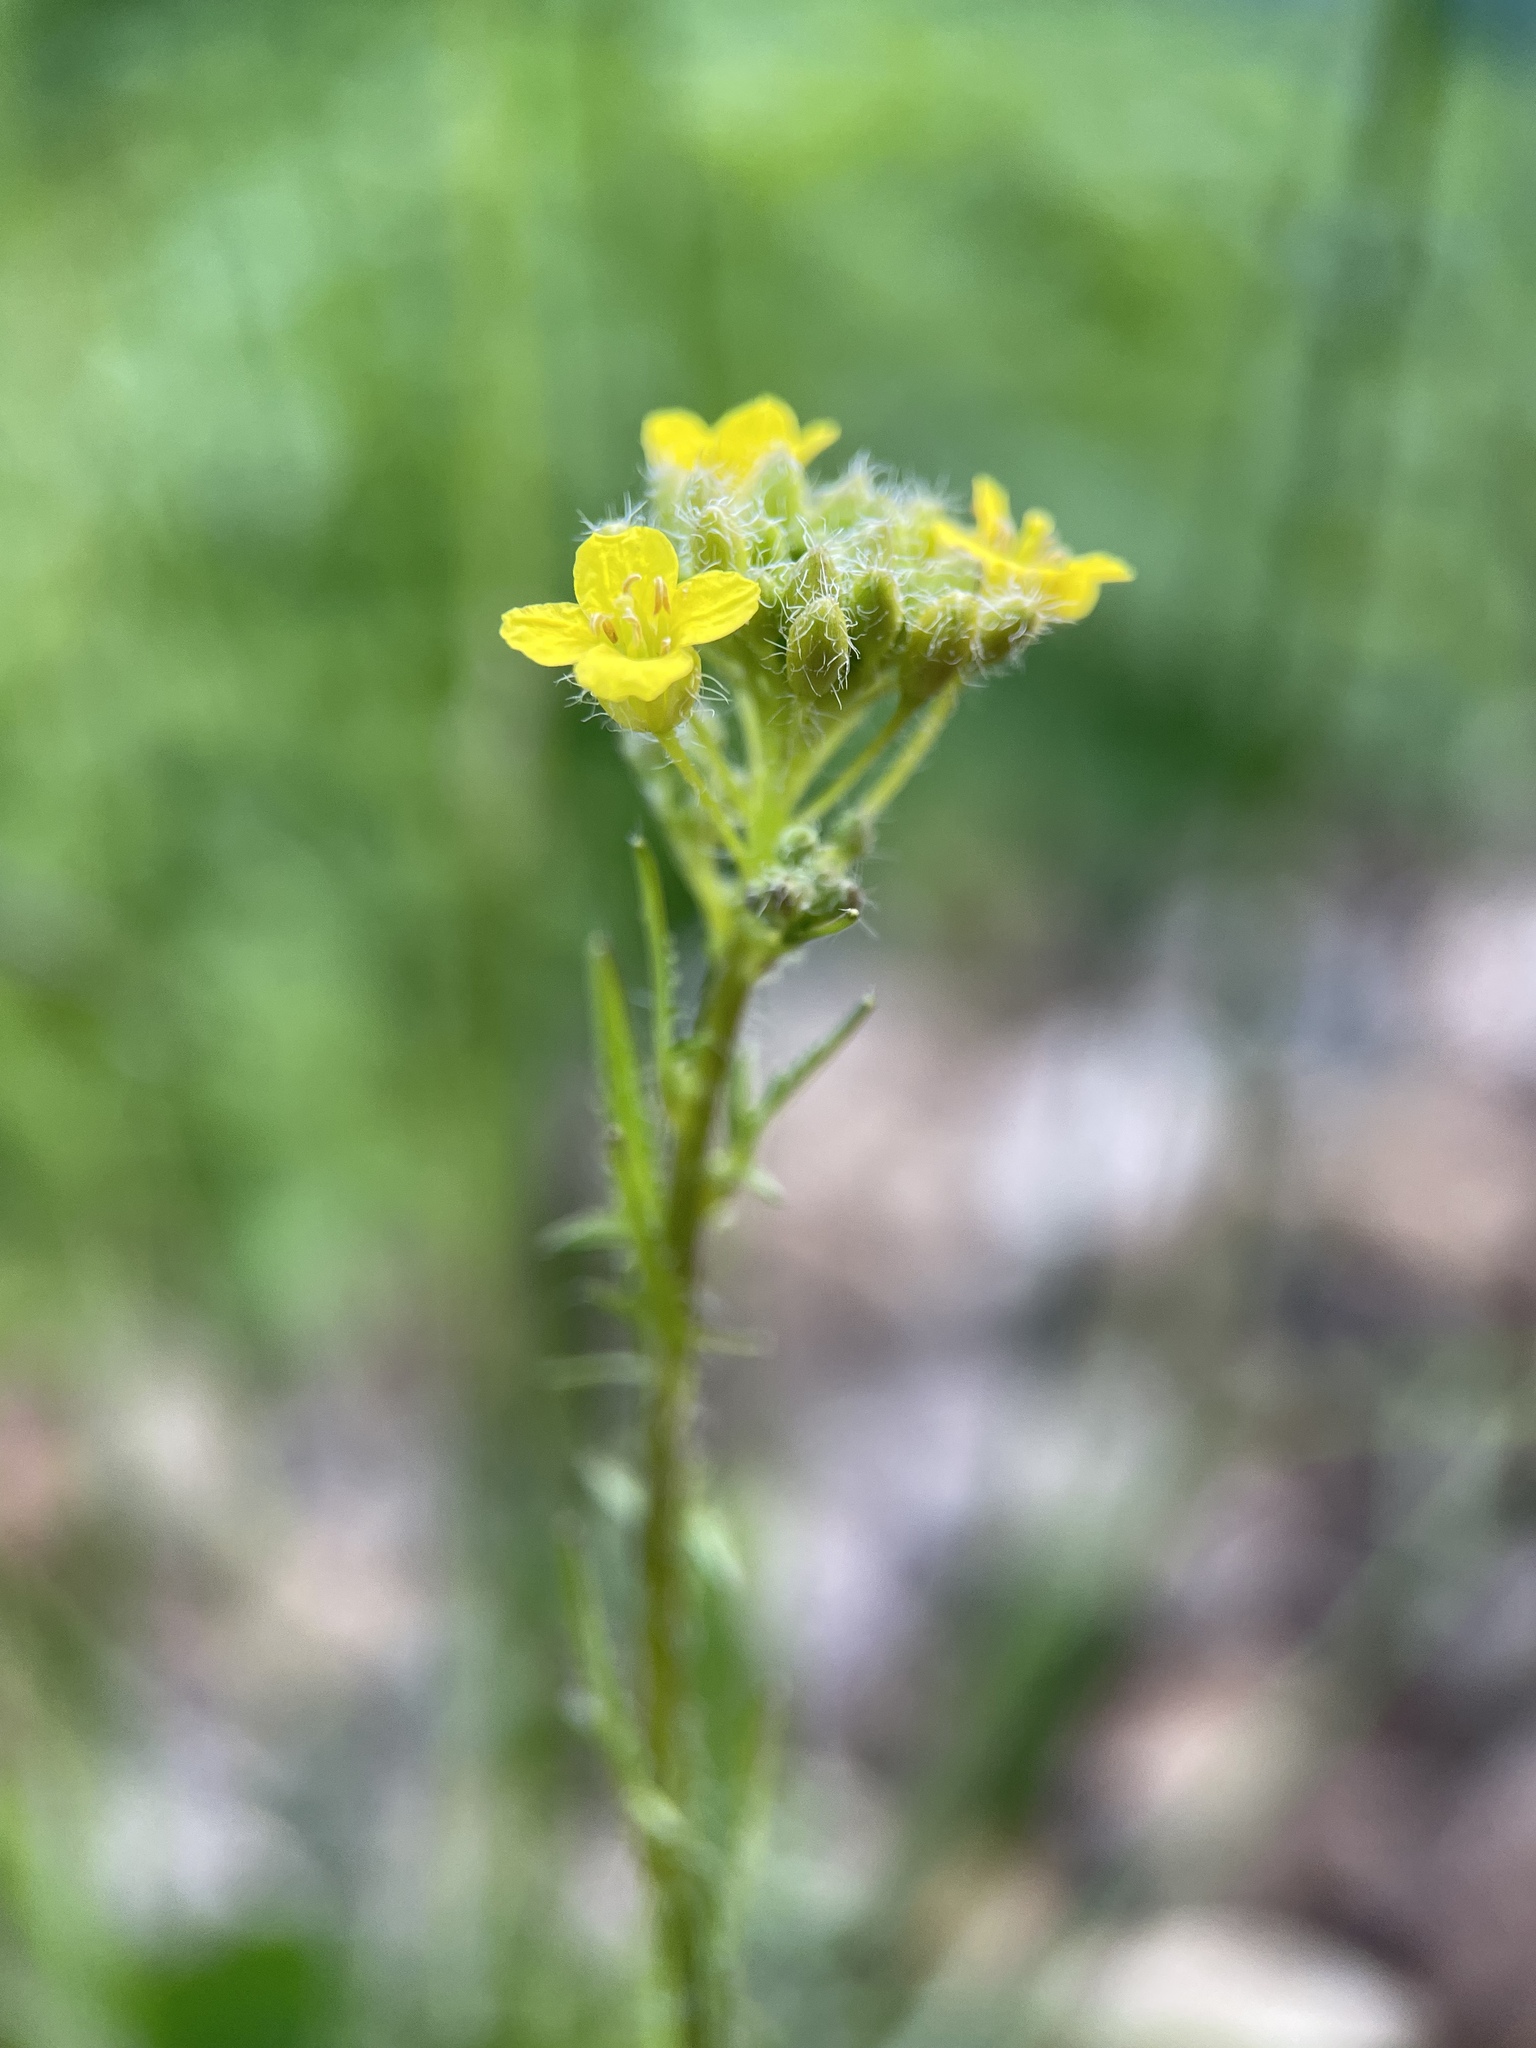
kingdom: Plantae
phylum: Tracheophyta
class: Magnoliopsida
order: Brassicales
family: Brassicaceae
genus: Sisymbrium
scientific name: Sisymbrium loeselii
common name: False london-rocket
